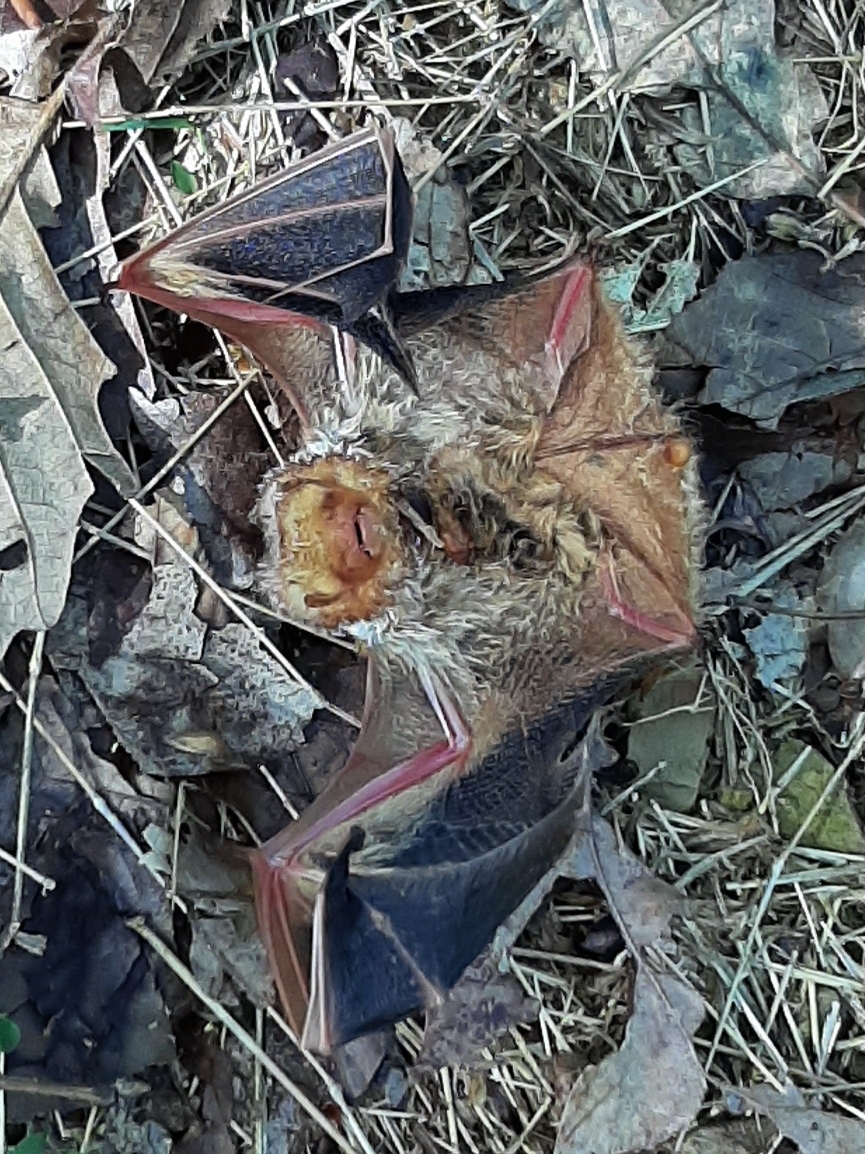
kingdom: Animalia
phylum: Chordata
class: Mammalia
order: Chiroptera
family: Vespertilionidae
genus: Lasiurus
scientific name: Lasiurus borealis
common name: Eastern red bat
